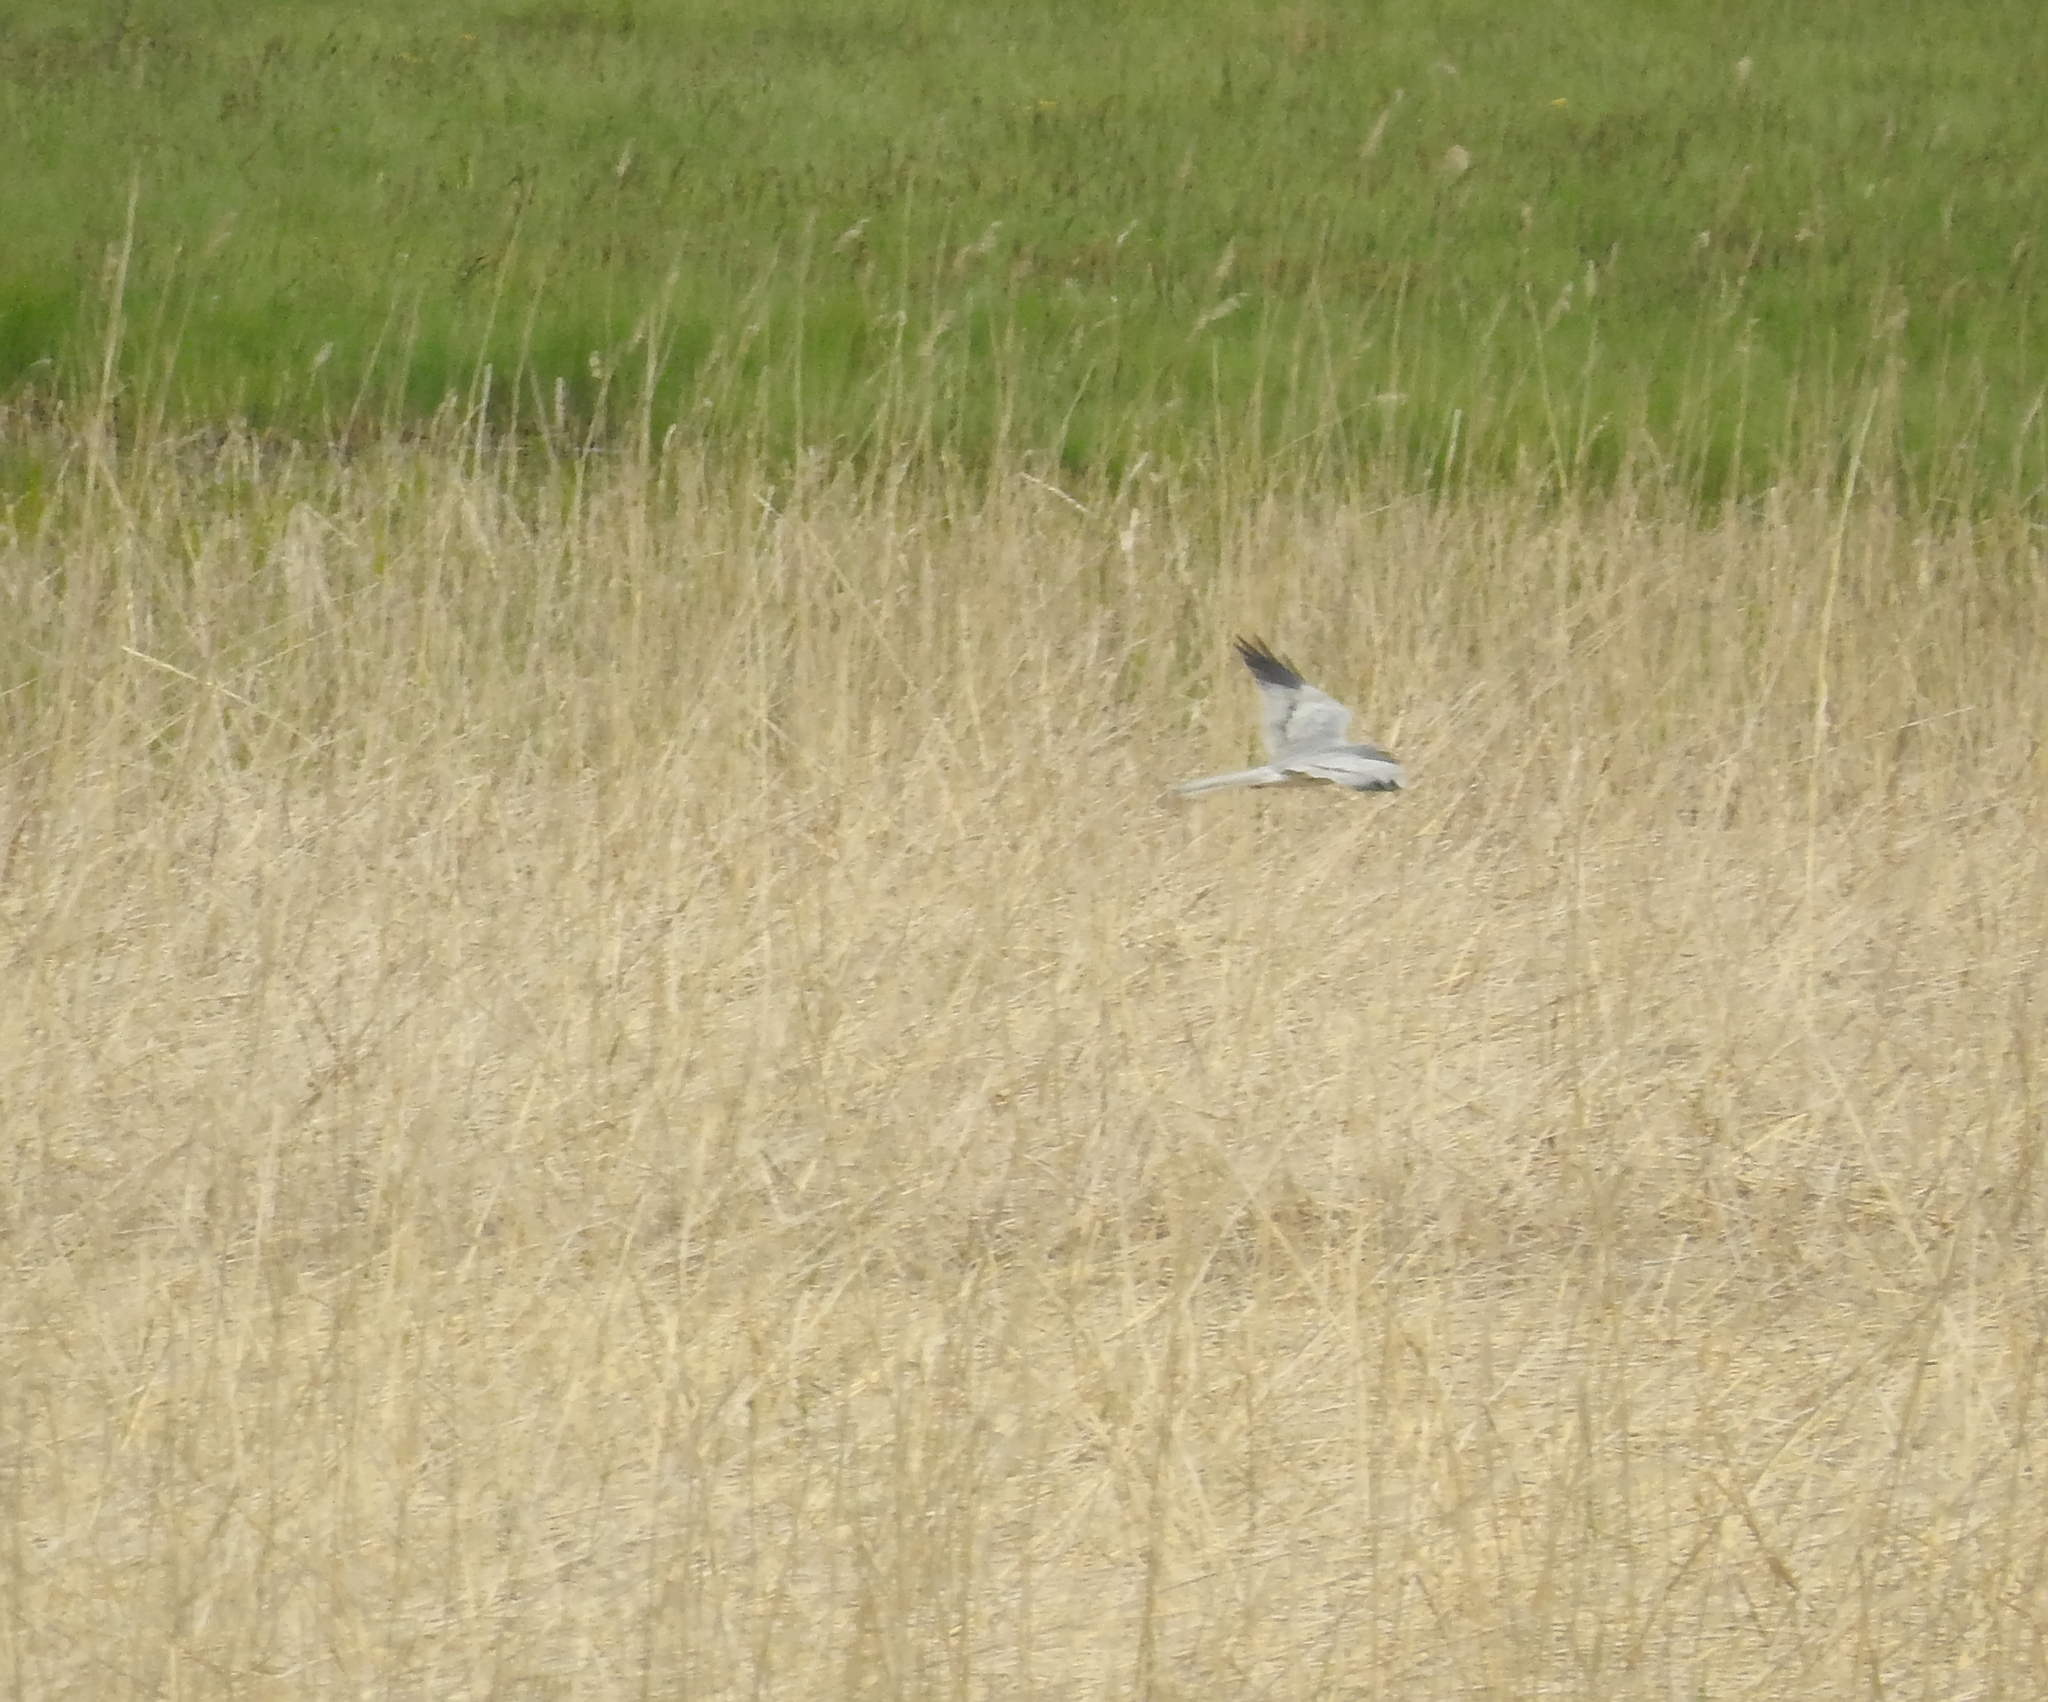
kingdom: Animalia
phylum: Chordata
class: Aves
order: Accipitriformes
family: Accipitridae
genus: Circus
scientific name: Circus pygargus
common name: Montagu's harrier
